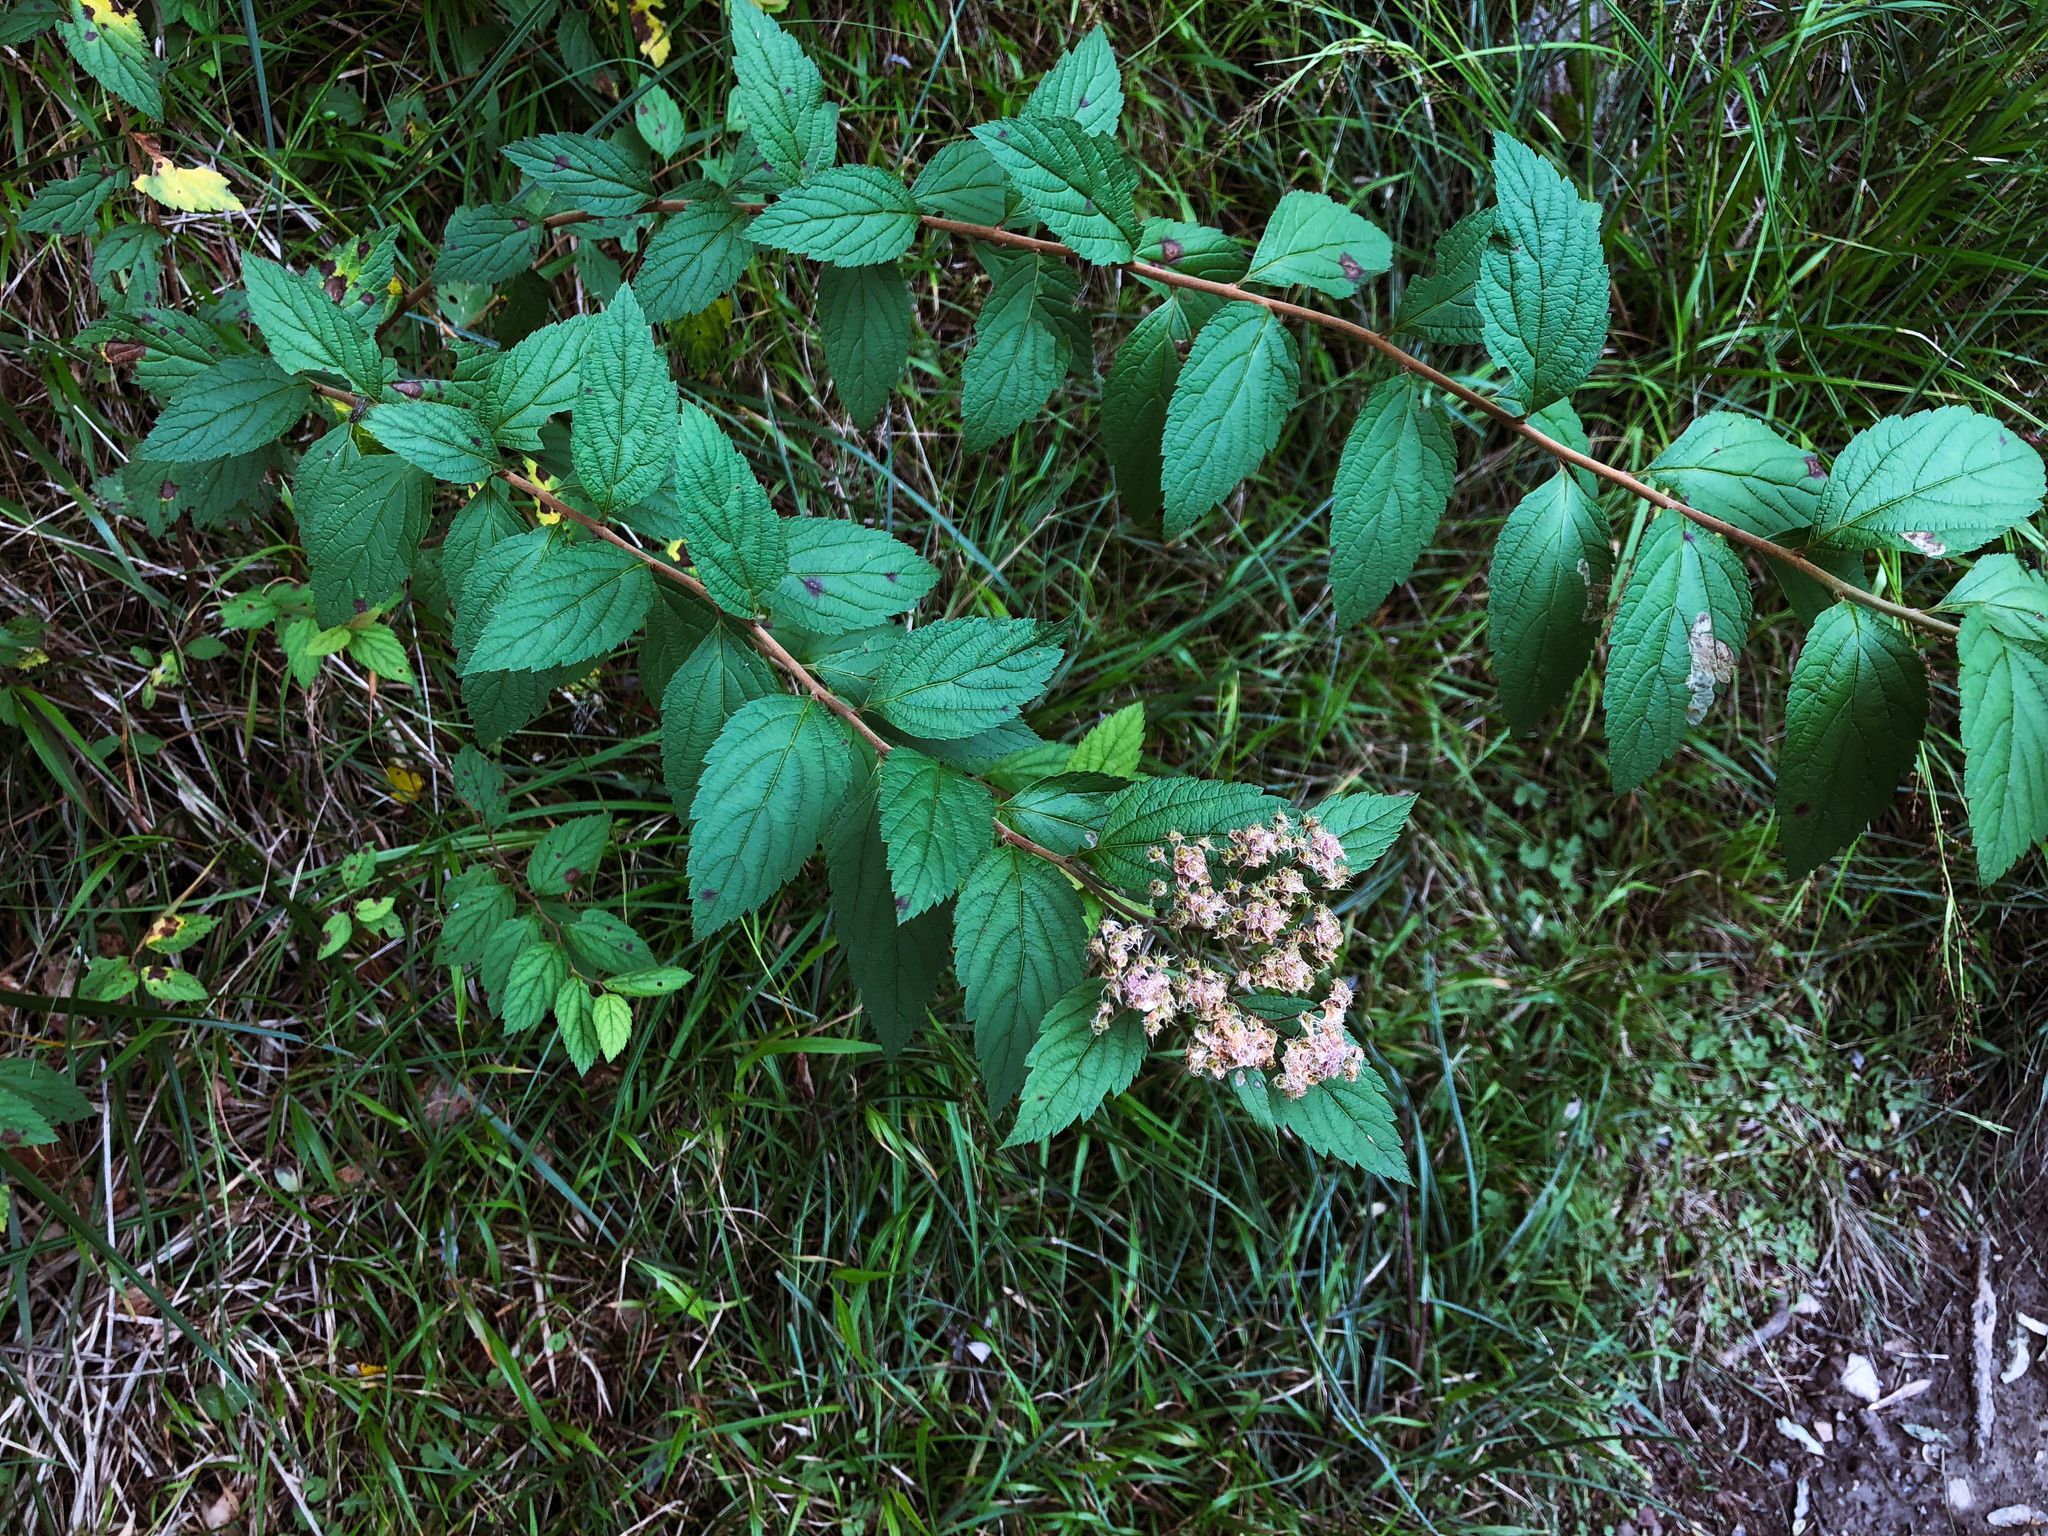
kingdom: Plantae
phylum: Tracheophyta
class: Magnoliopsida
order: Rosales
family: Rosaceae
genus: Spiraea
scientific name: Spiraea japonica
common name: Japanese spiraea
